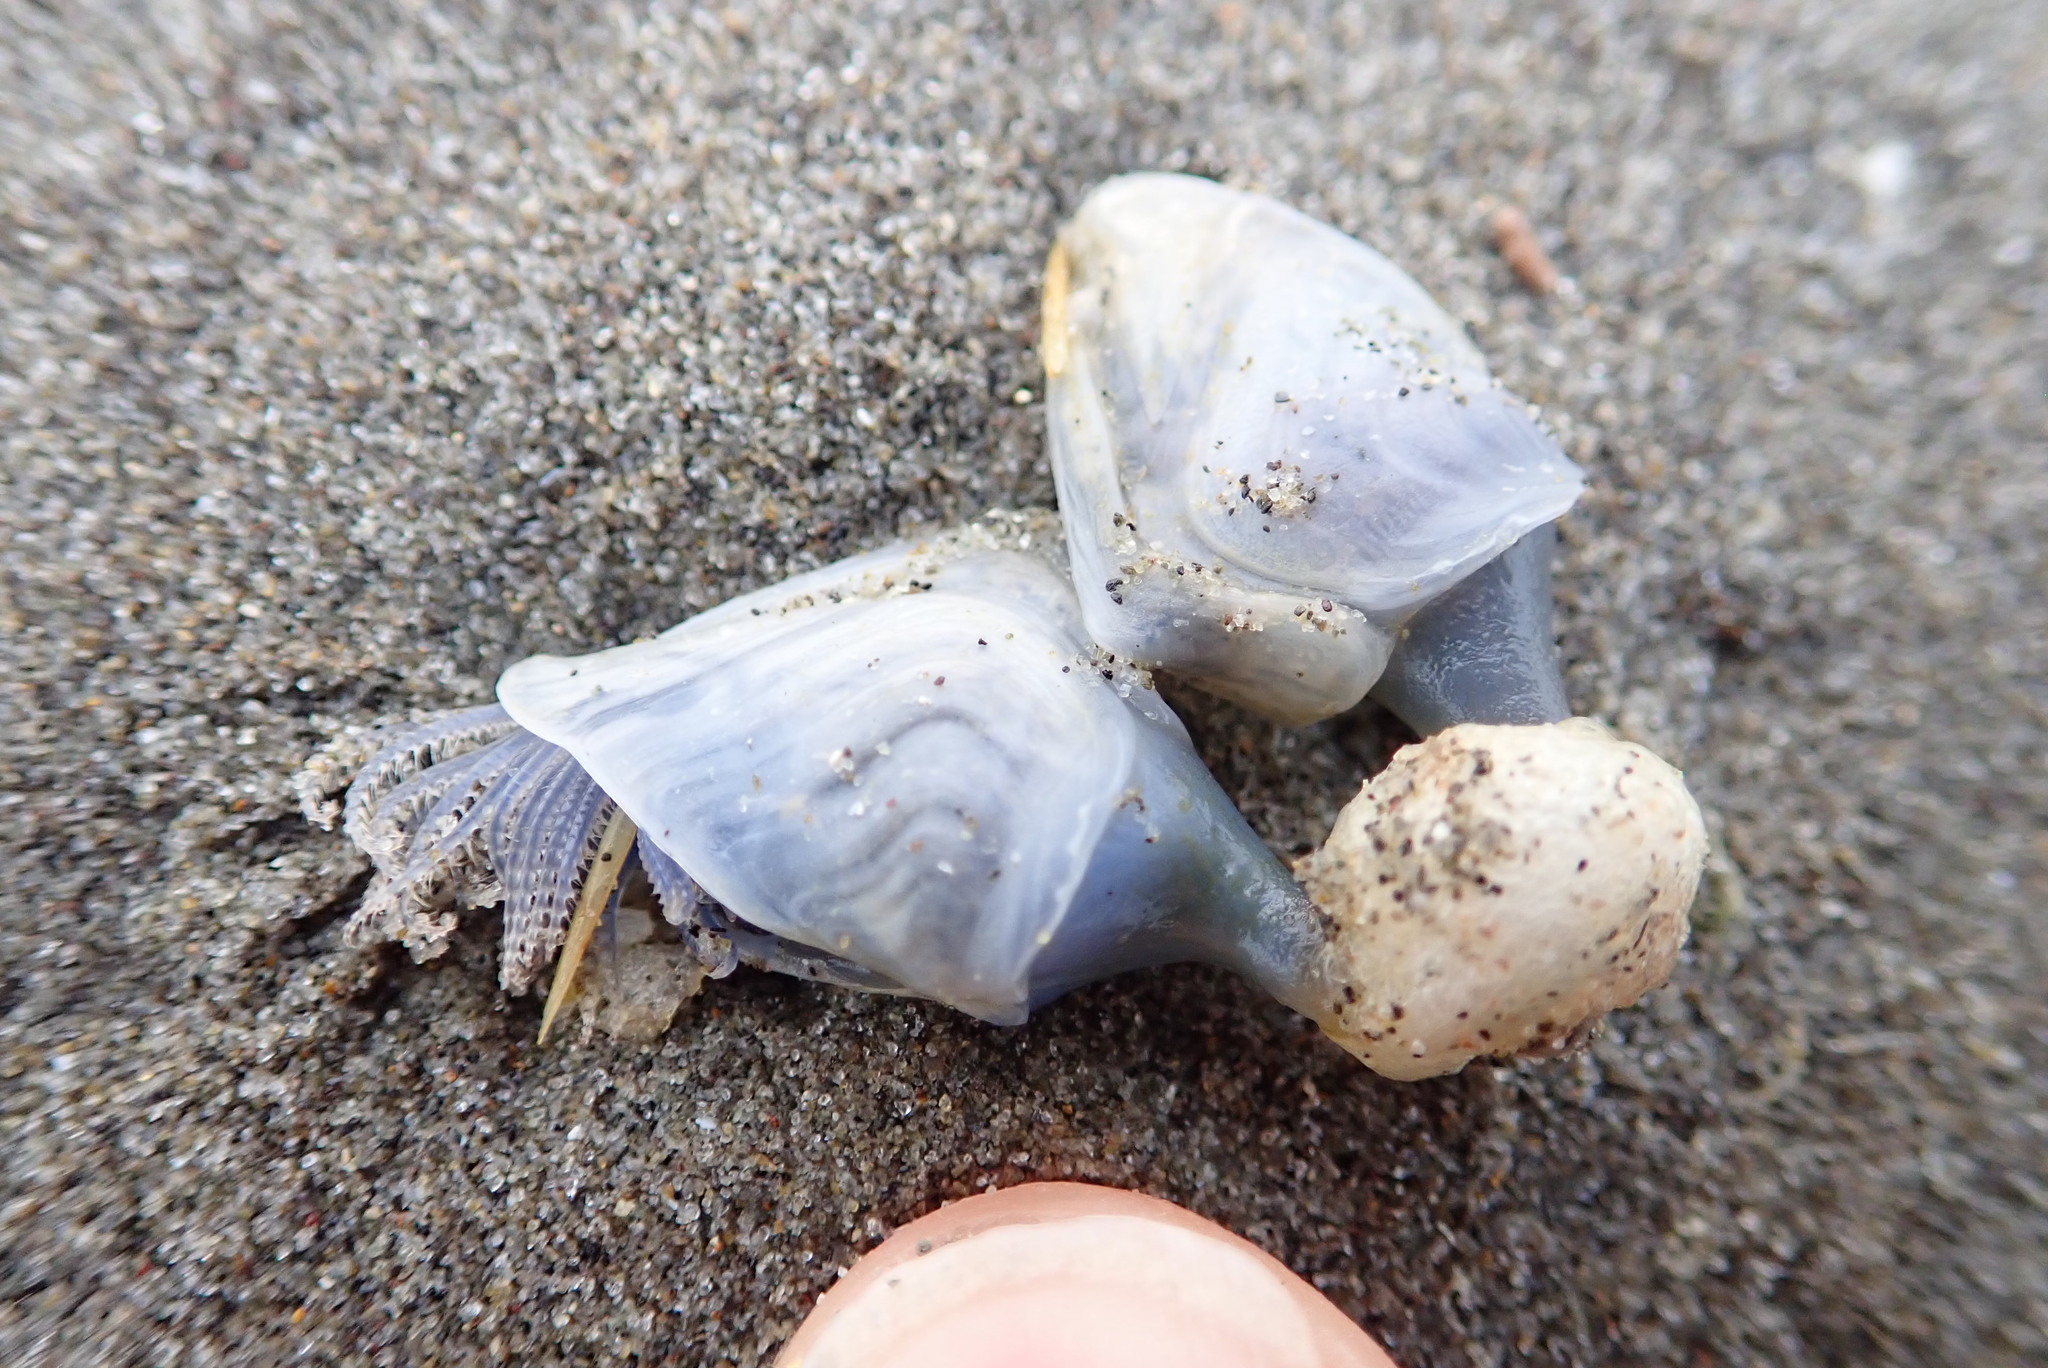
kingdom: Animalia
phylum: Arthropoda
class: Maxillopoda
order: Pedunculata
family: Lepadidae
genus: Dosima
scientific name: Dosima fascicularis
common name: Buoy barnacle
